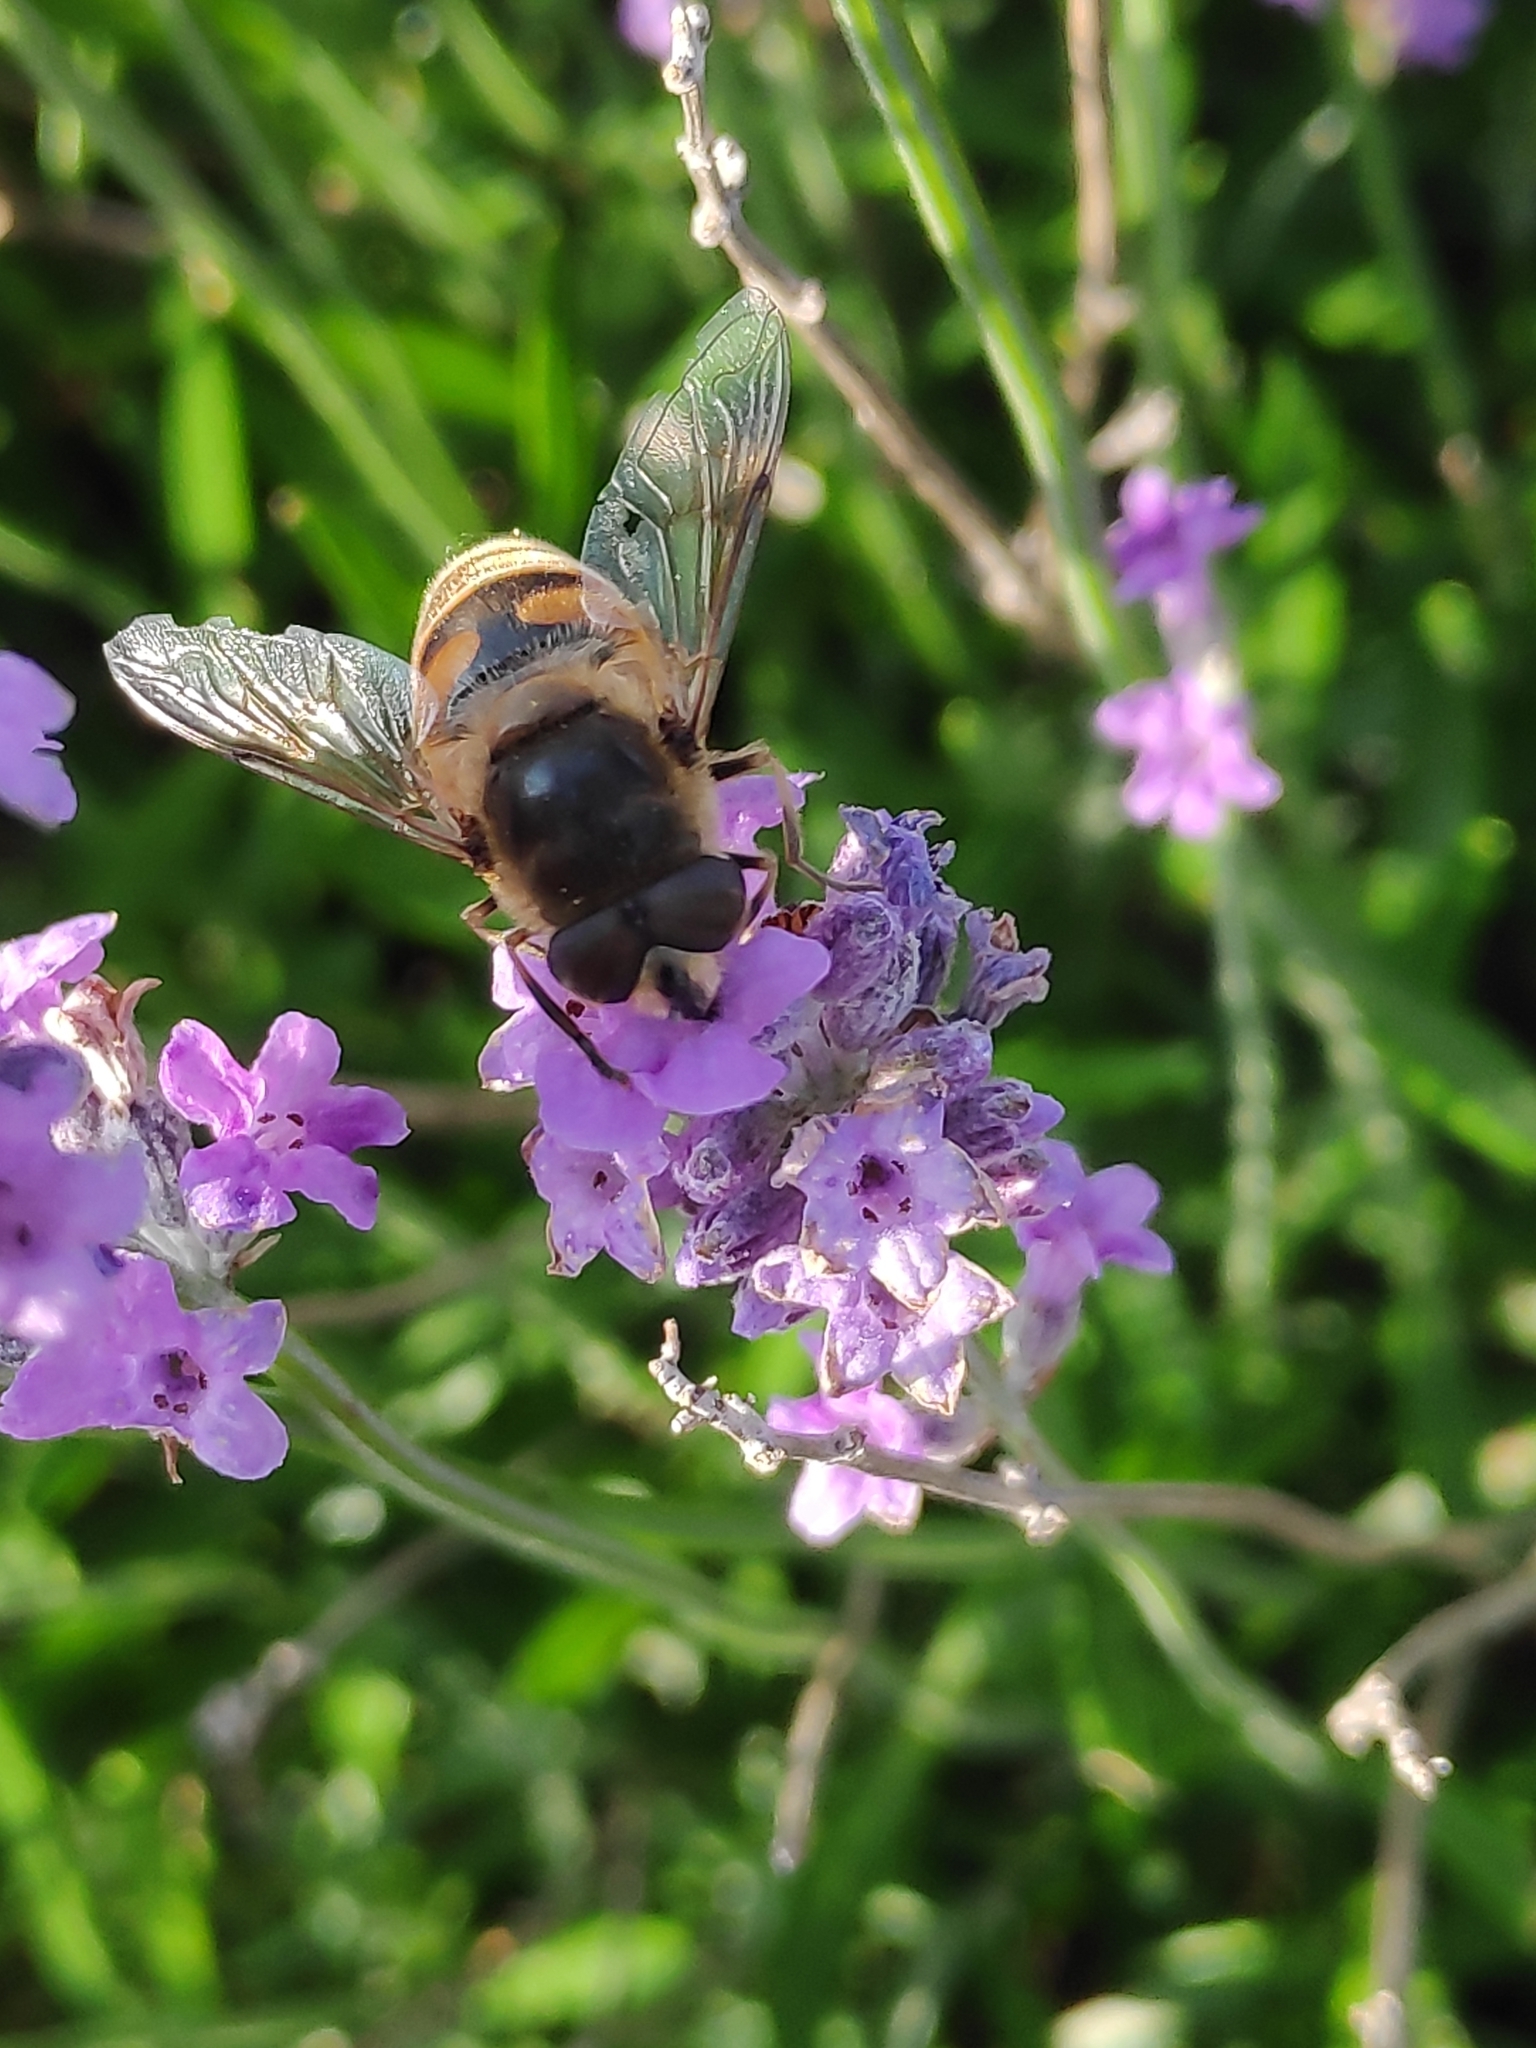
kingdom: Animalia
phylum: Arthropoda
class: Insecta
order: Diptera
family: Syrphidae
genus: Eristalis
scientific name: Eristalis tenax
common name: Drone fly
